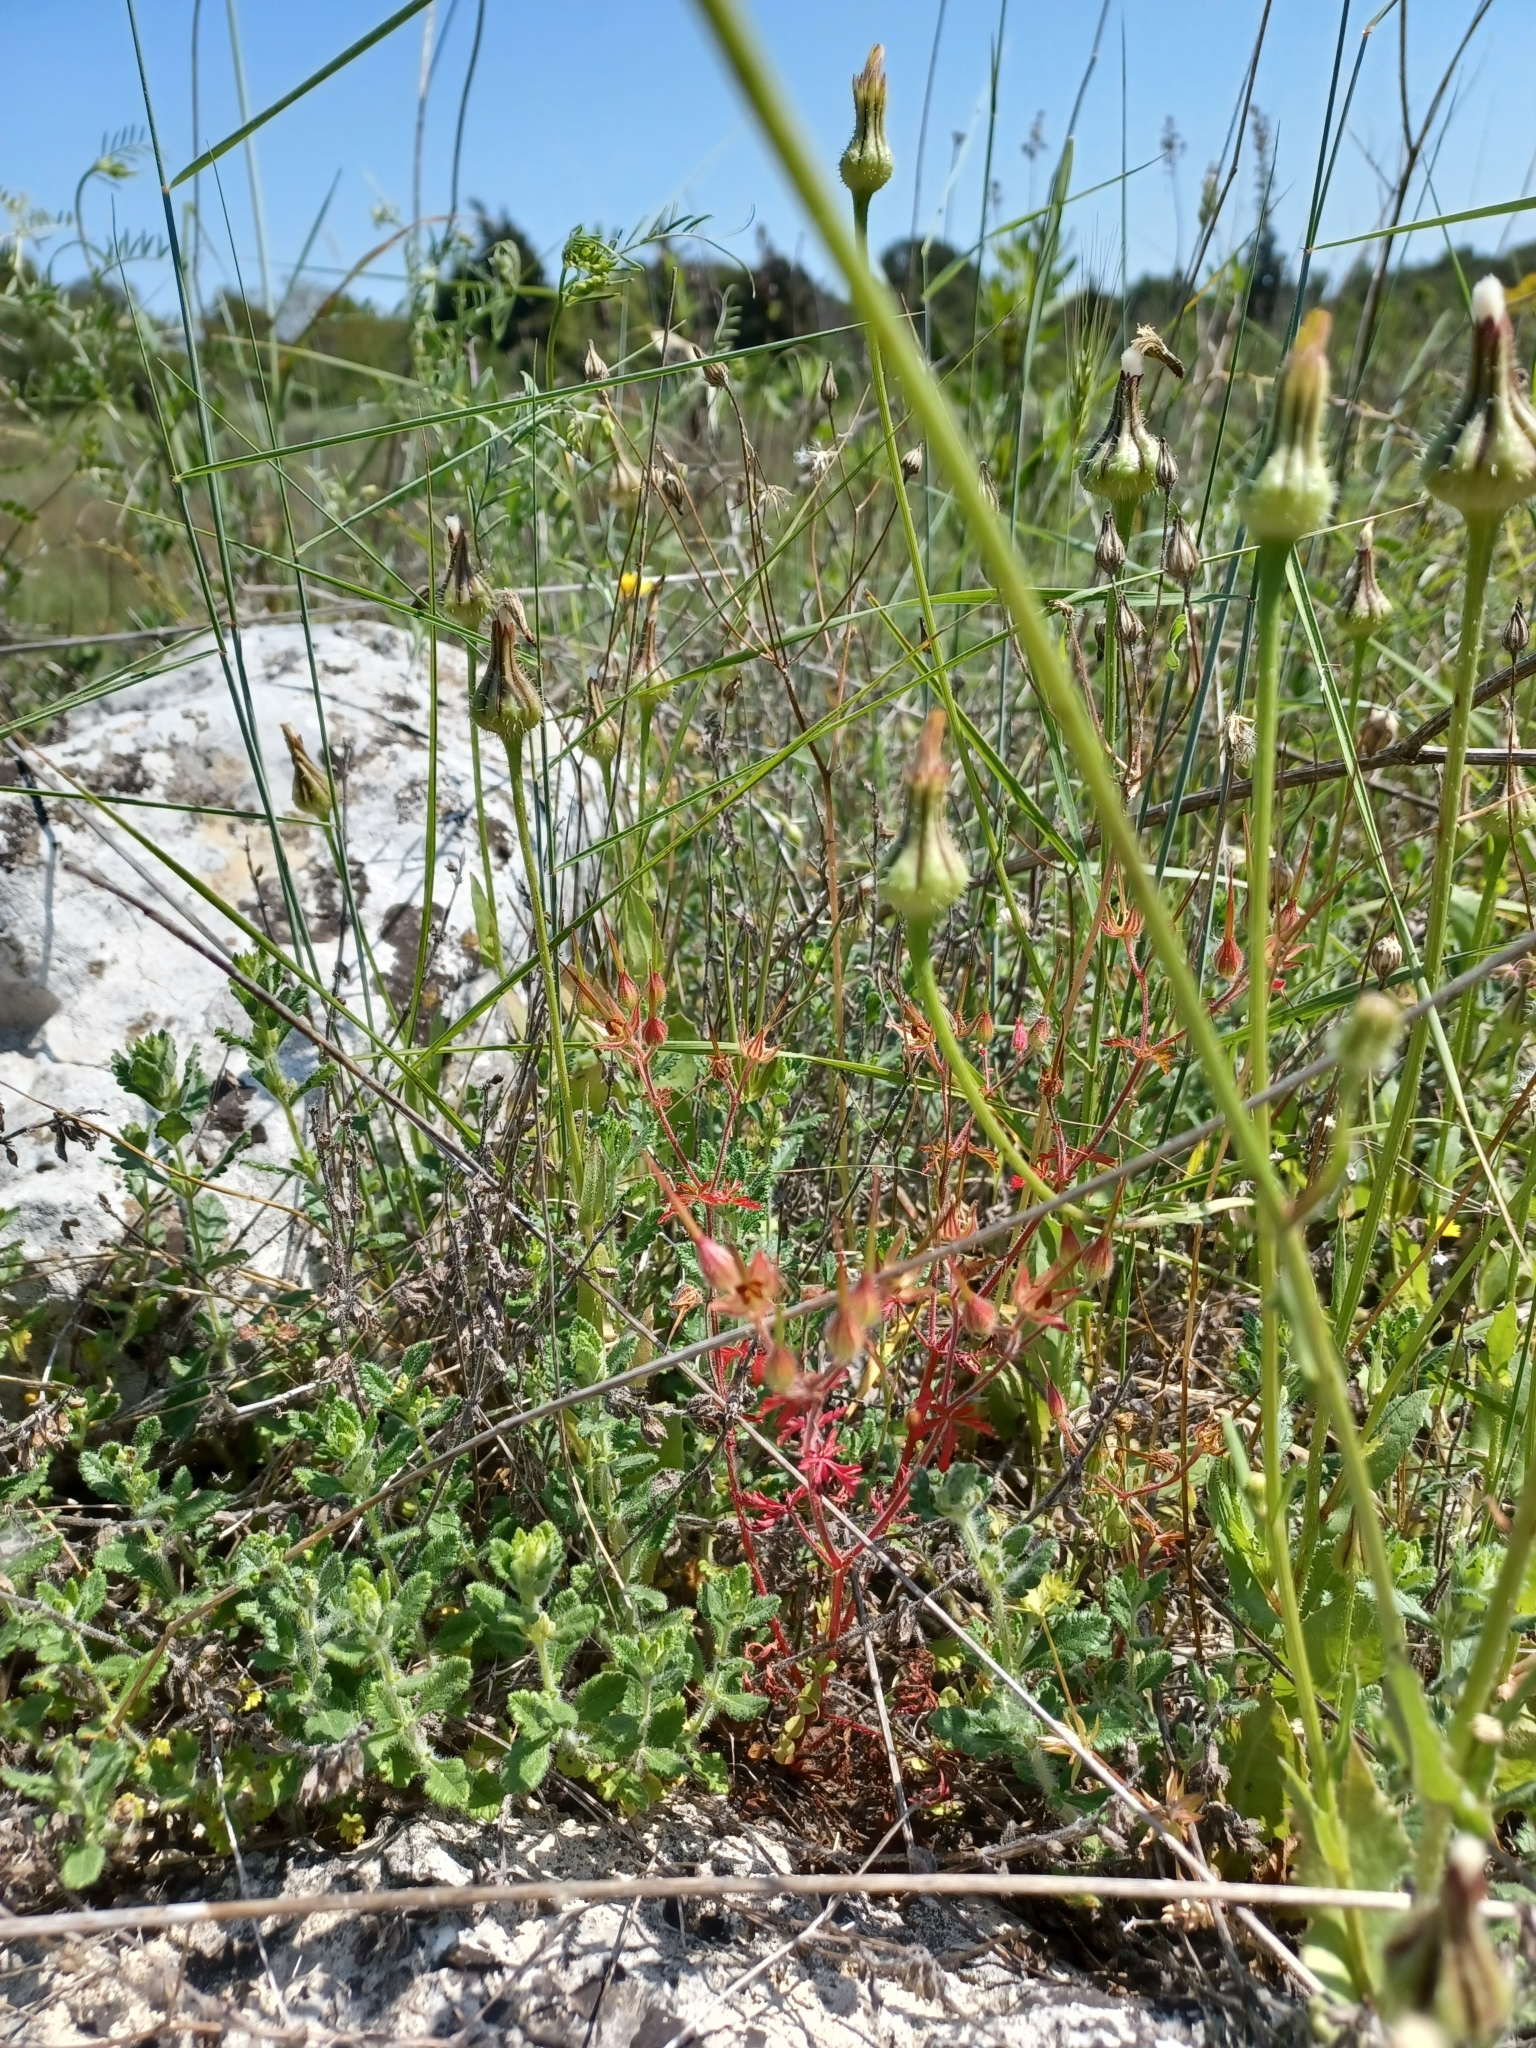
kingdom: Plantae
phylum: Tracheophyta
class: Magnoliopsida
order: Geraniales
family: Geraniaceae
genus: Geranium
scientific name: Geranium purpureum
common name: Little-robin
